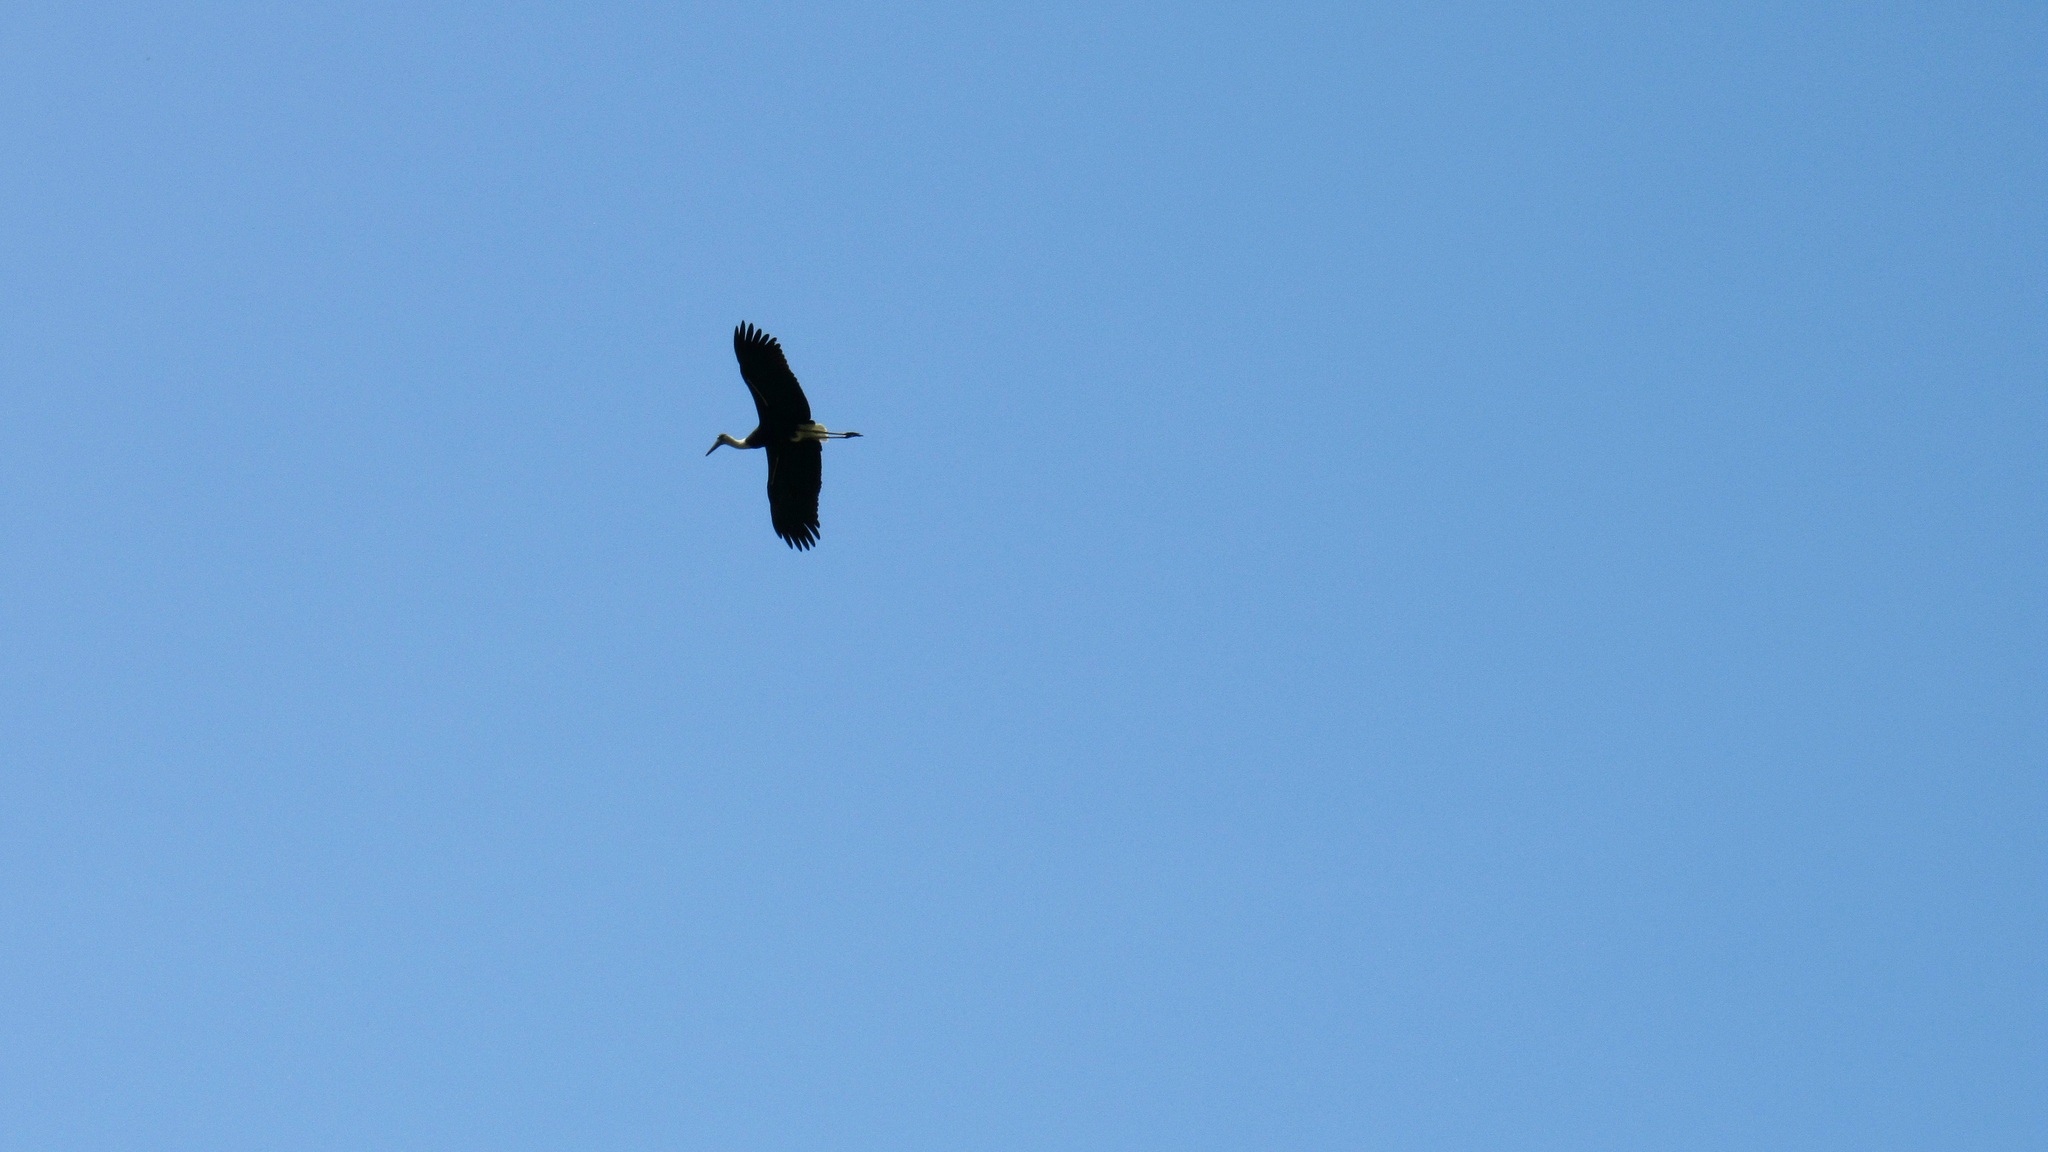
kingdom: Animalia
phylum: Chordata
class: Aves
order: Ciconiiformes
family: Ciconiidae
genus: Ciconia
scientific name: Ciconia episcopus
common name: Woolly-necked stork
